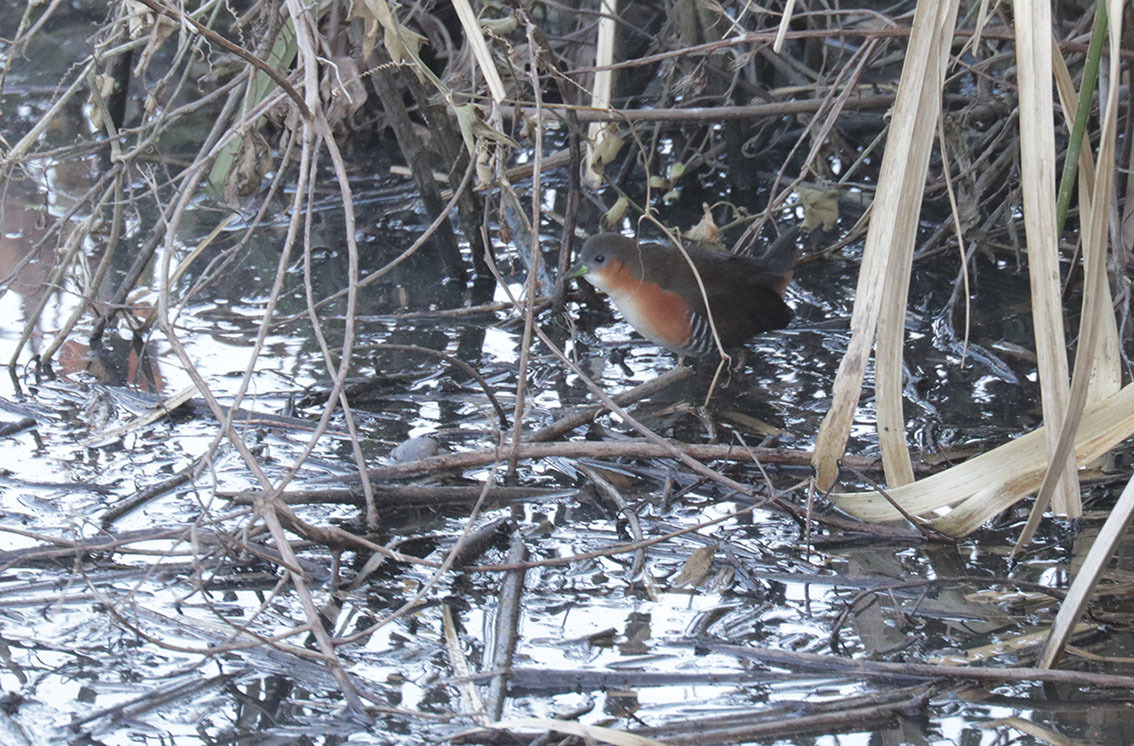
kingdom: Animalia
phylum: Chordata
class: Aves
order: Gruiformes
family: Rallidae
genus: Laterallus
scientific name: Laterallus melanophaius
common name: Rufous-sided crake
